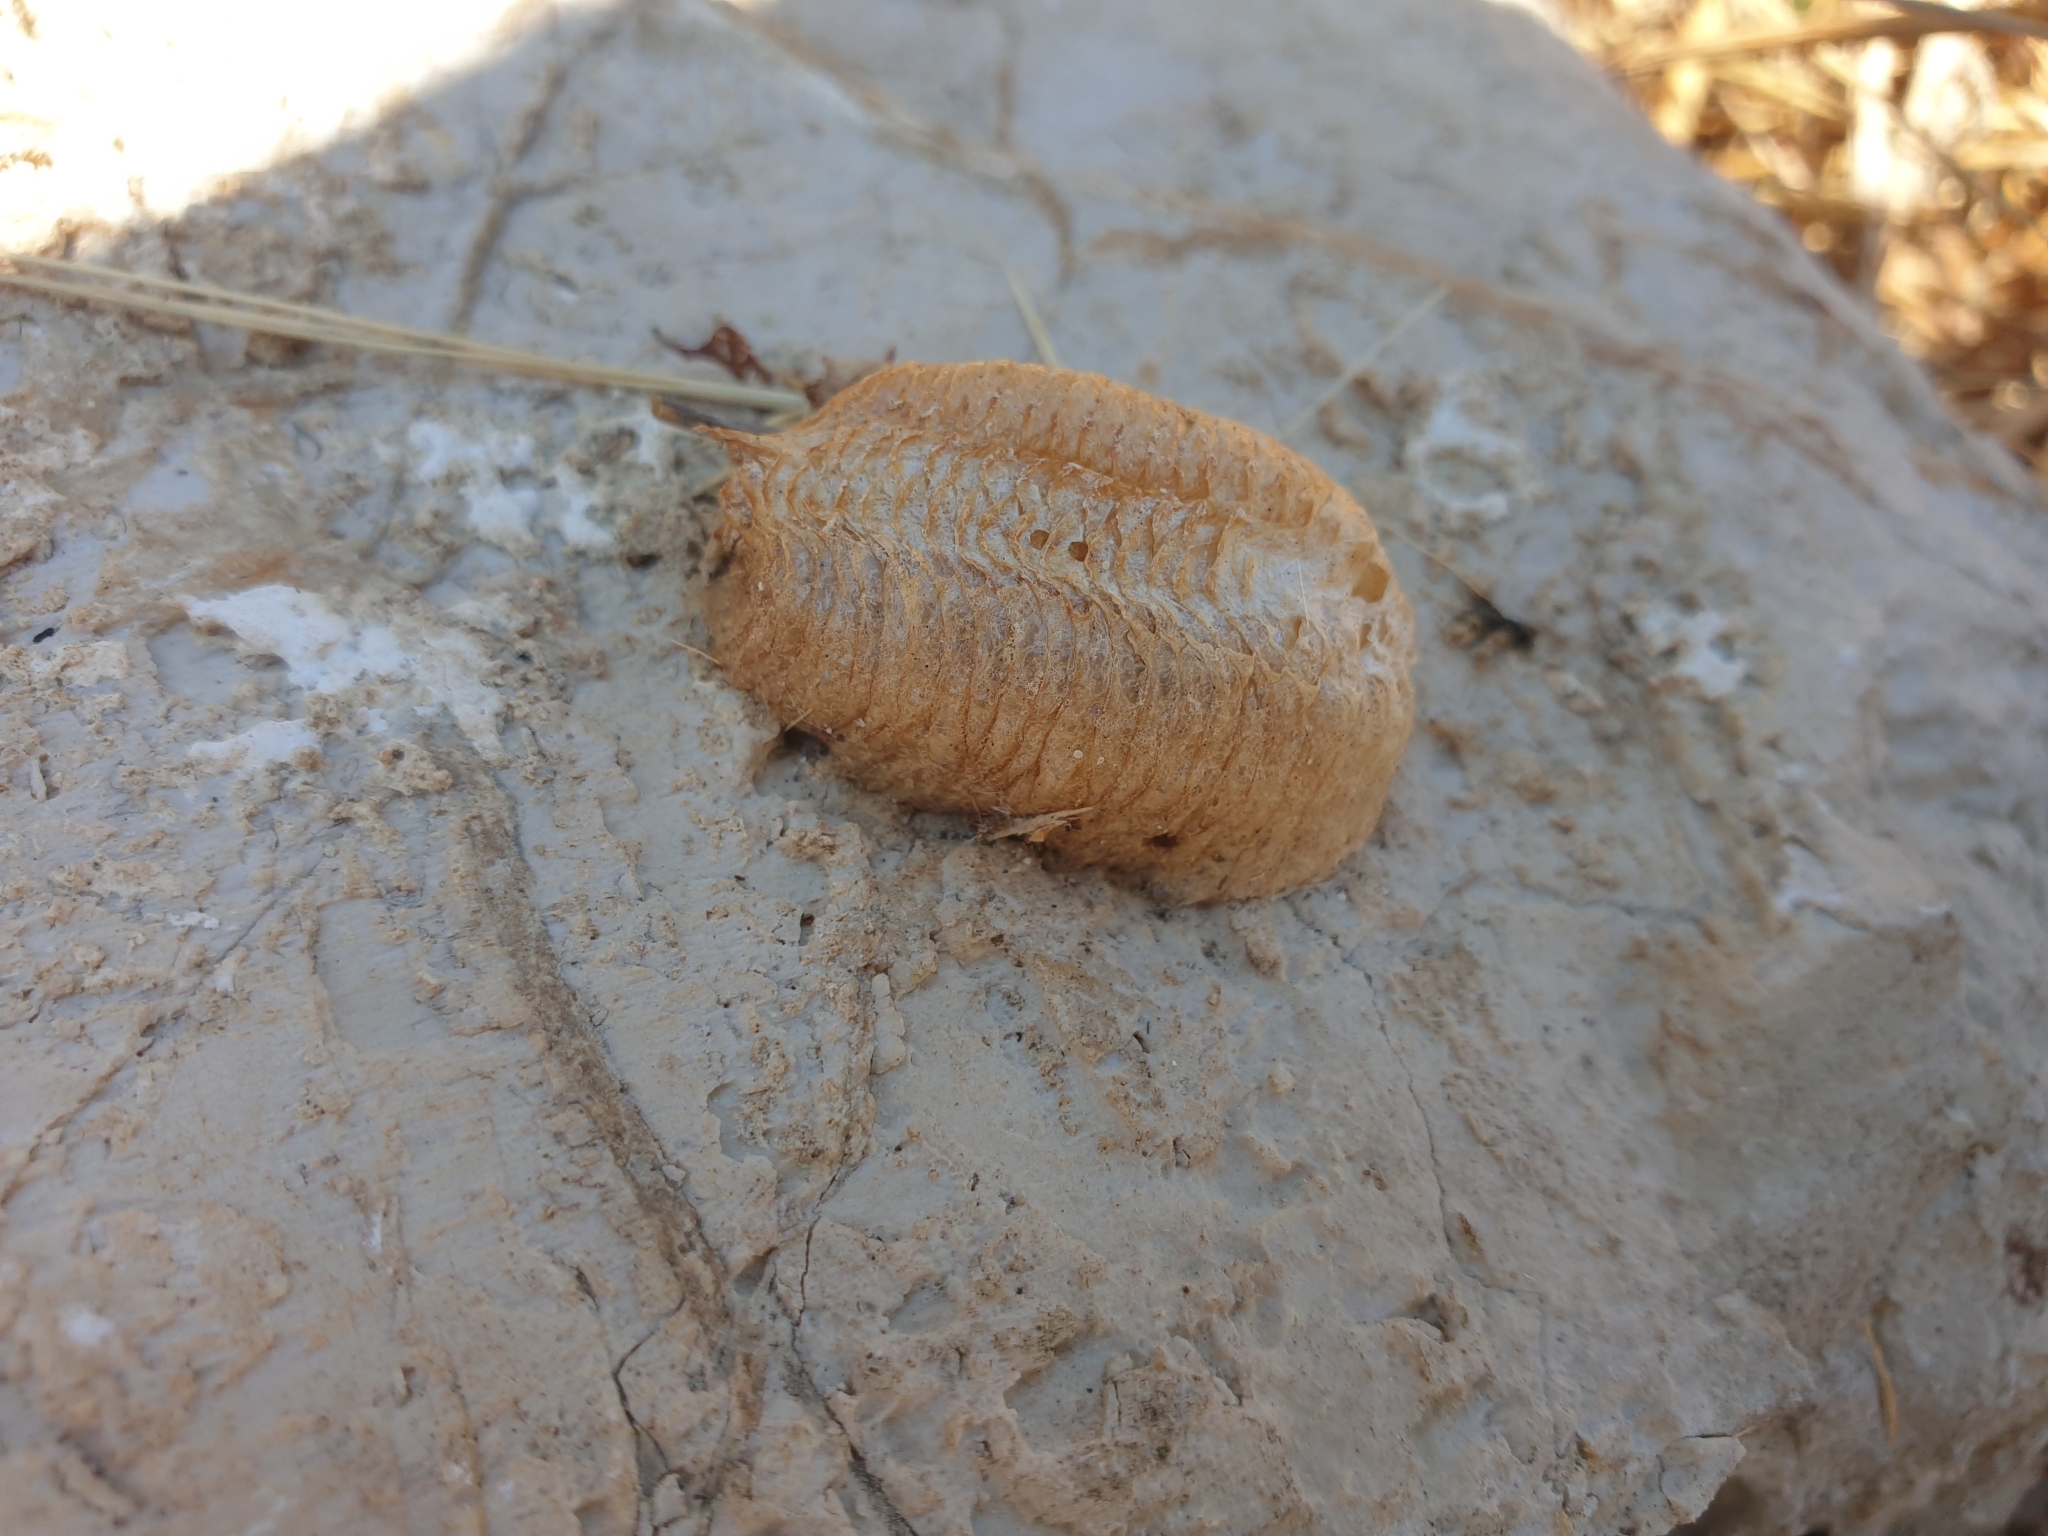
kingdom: Animalia
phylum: Arthropoda
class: Insecta
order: Mantodea
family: Mantidae
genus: Mantis
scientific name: Mantis religiosa
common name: Praying mantis
